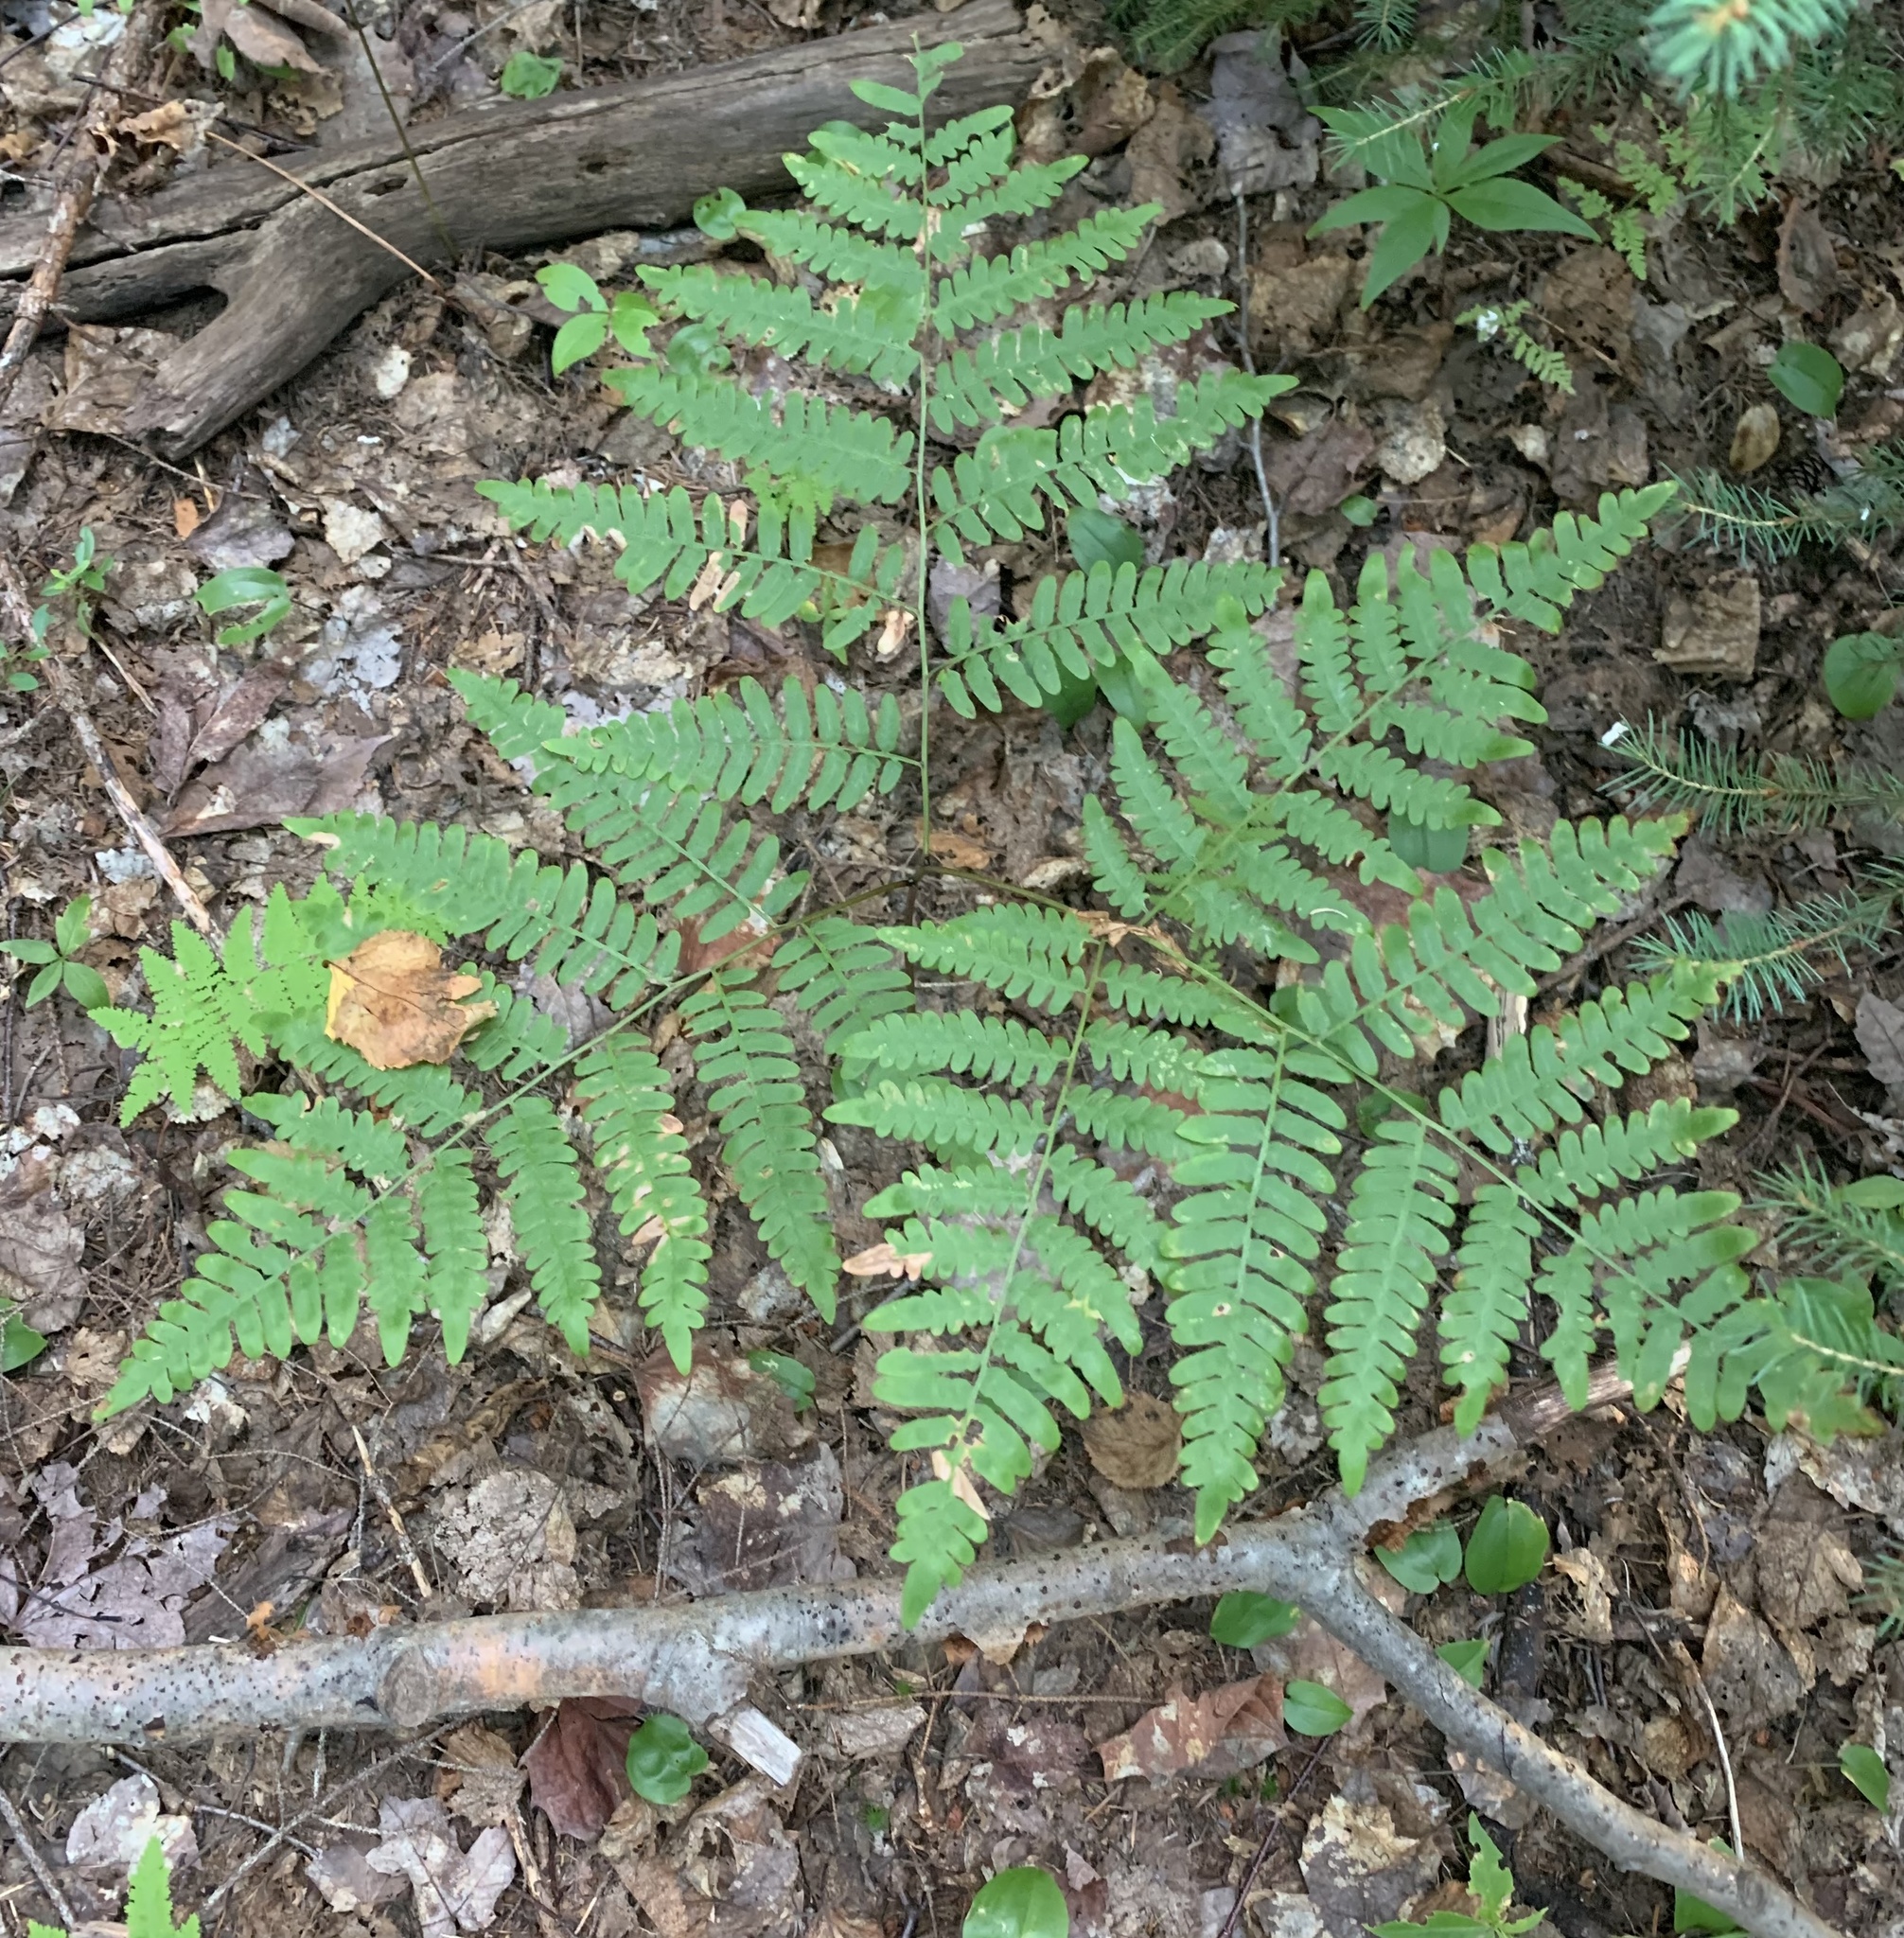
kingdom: Plantae
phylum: Tracheophyta
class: Polypodiopsida
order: Polypodiales
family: Dennstaedtiaceae
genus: Pteridium
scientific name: Pteridium aquilinum
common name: Bracken
